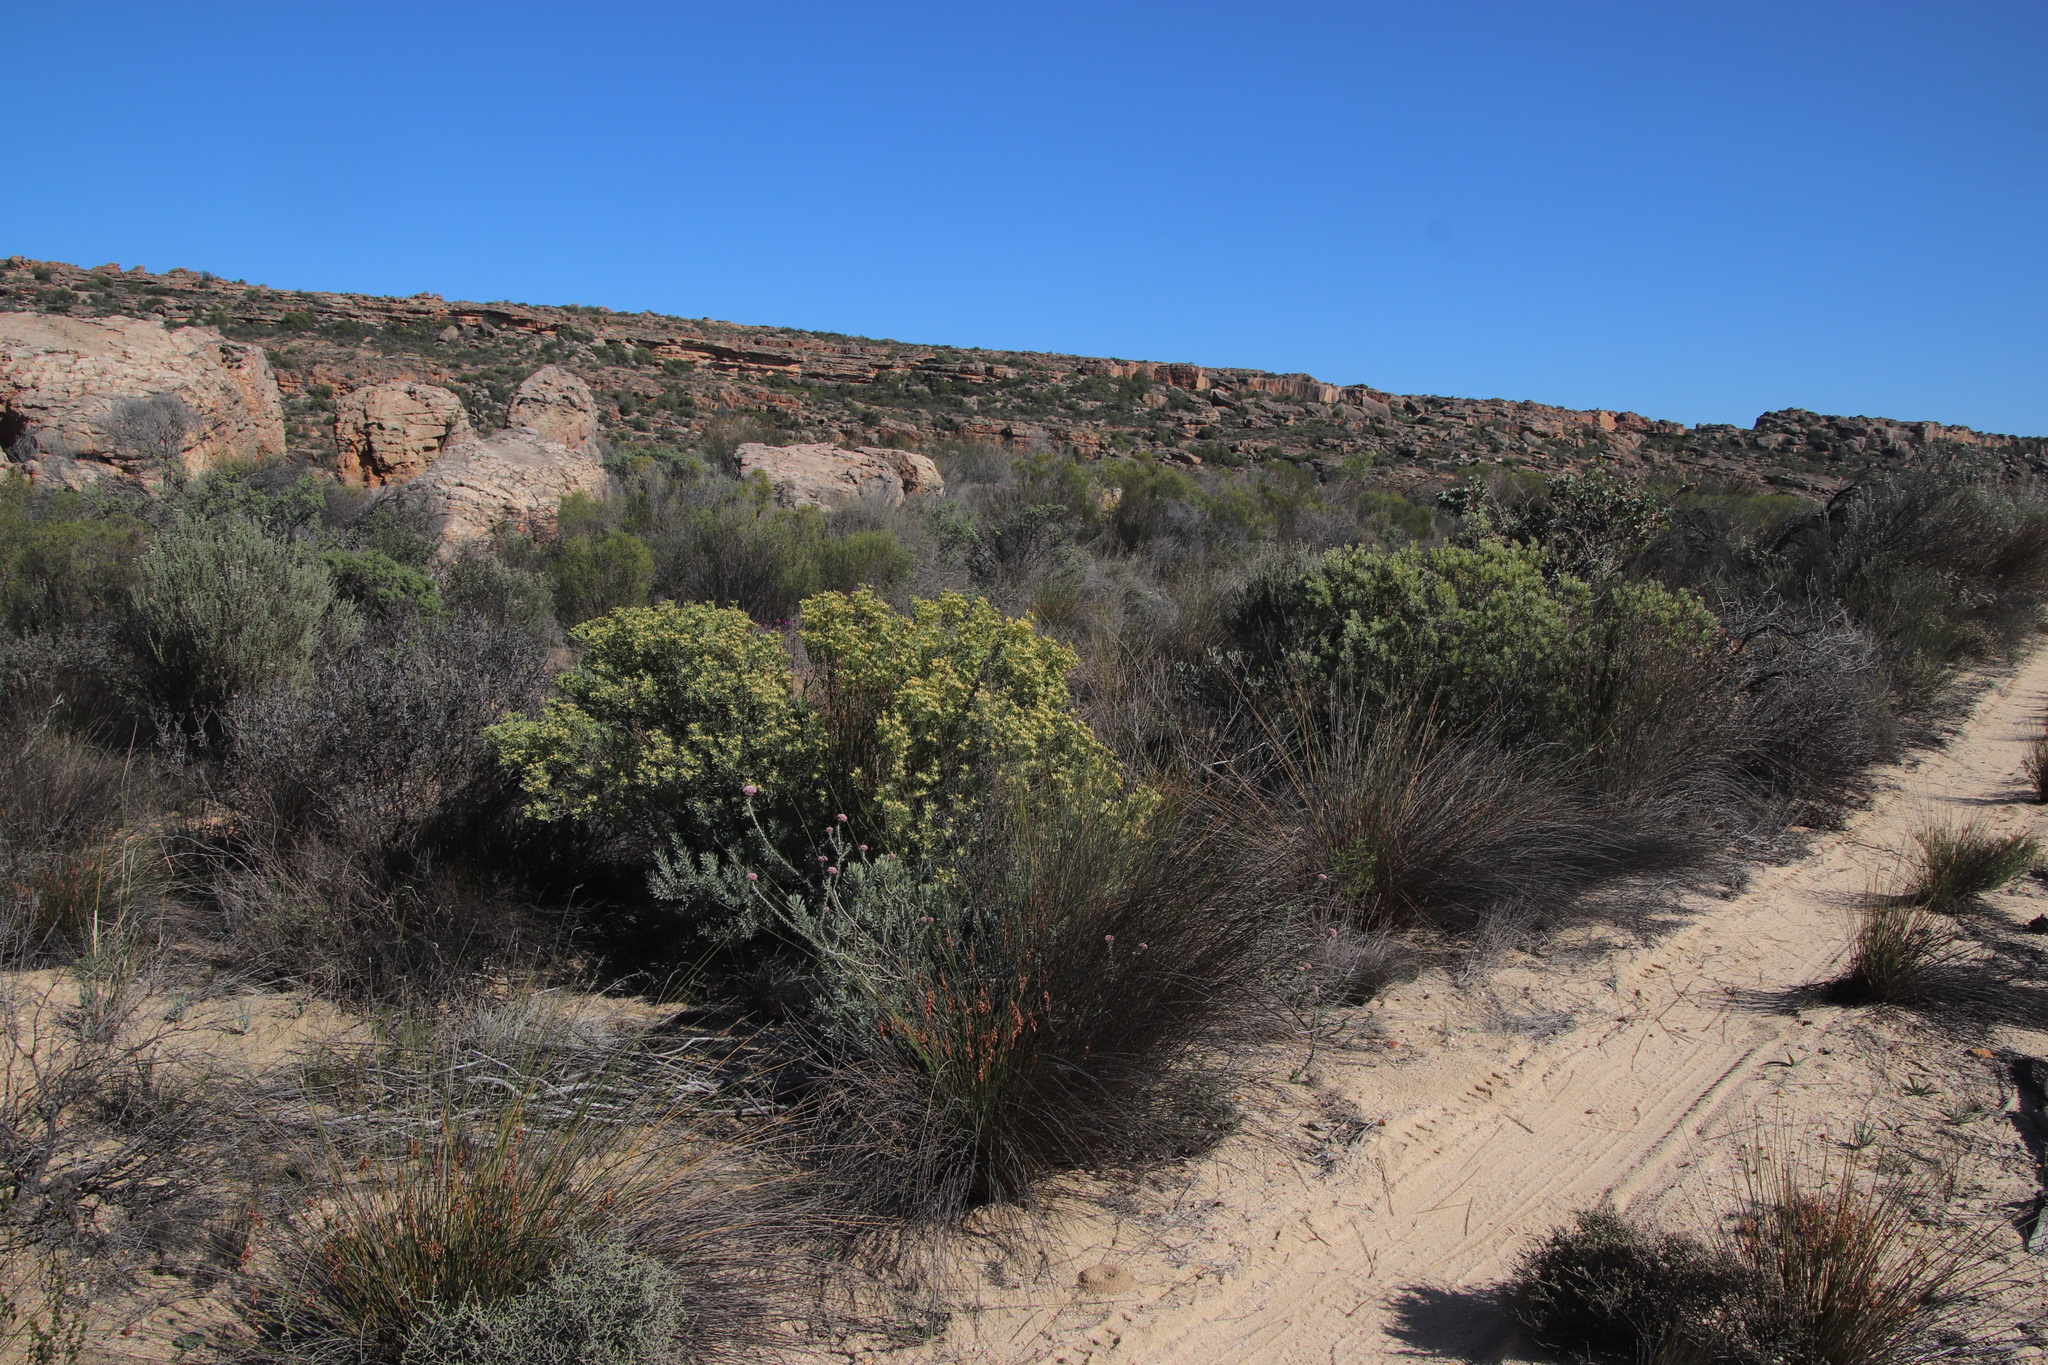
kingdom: Plantae
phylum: Tracheophyta
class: Magnoliopsida
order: Proteales
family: Proteaceae
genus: Leucadendron
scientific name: Leucadendron pubescens
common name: Grey conebush
